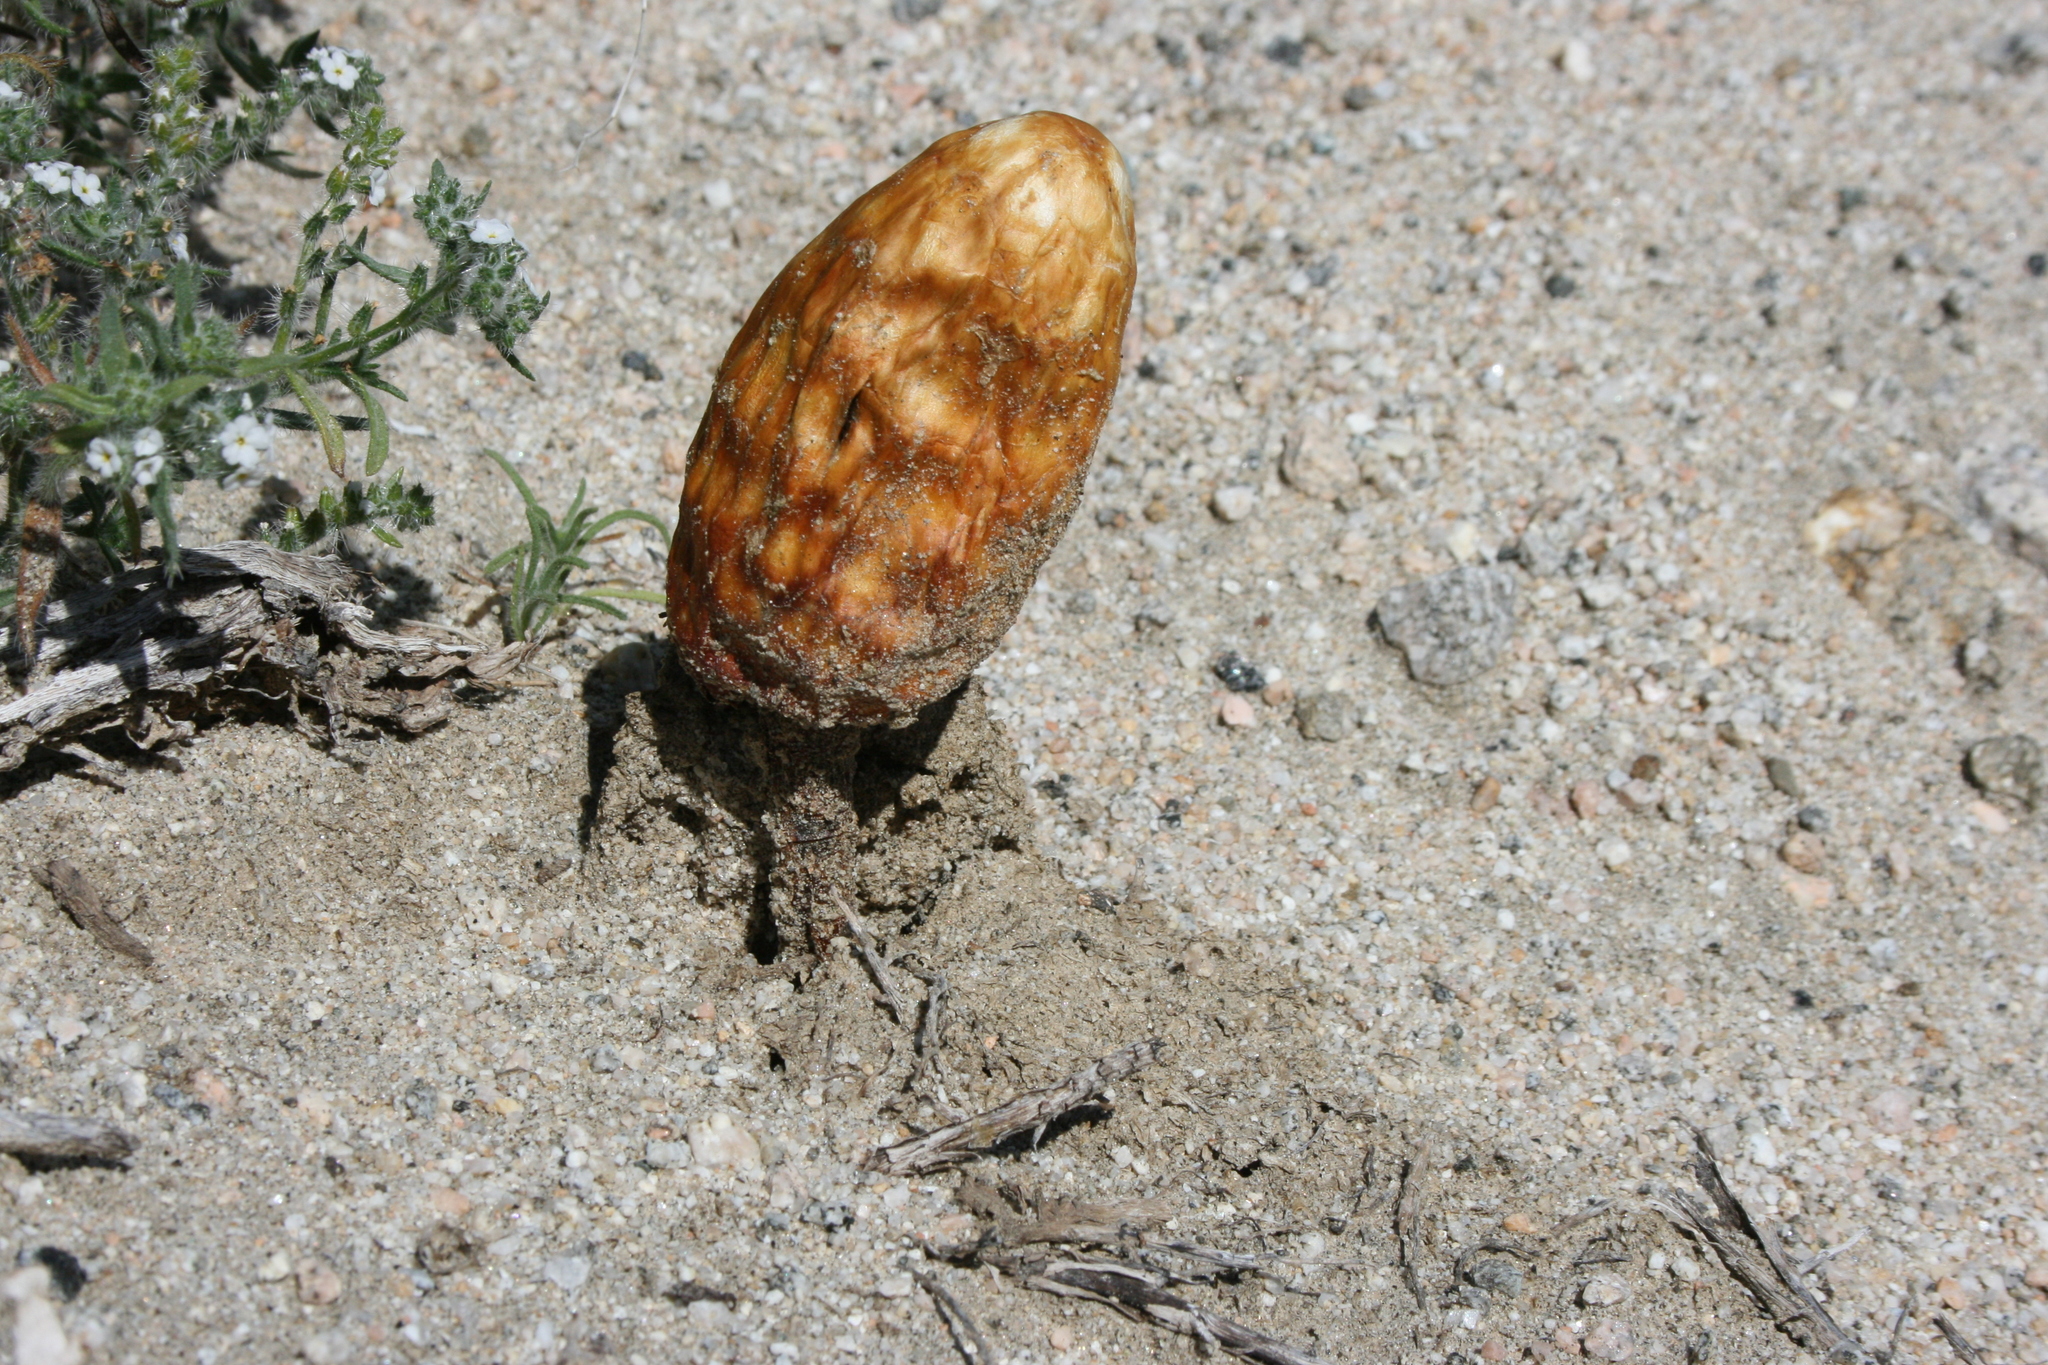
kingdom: Fungi
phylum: Basidiomycota
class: Agaricomycetes
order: Agaricales
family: Agaricaceae
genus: Podaxis
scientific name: Podaxis pistillaris
